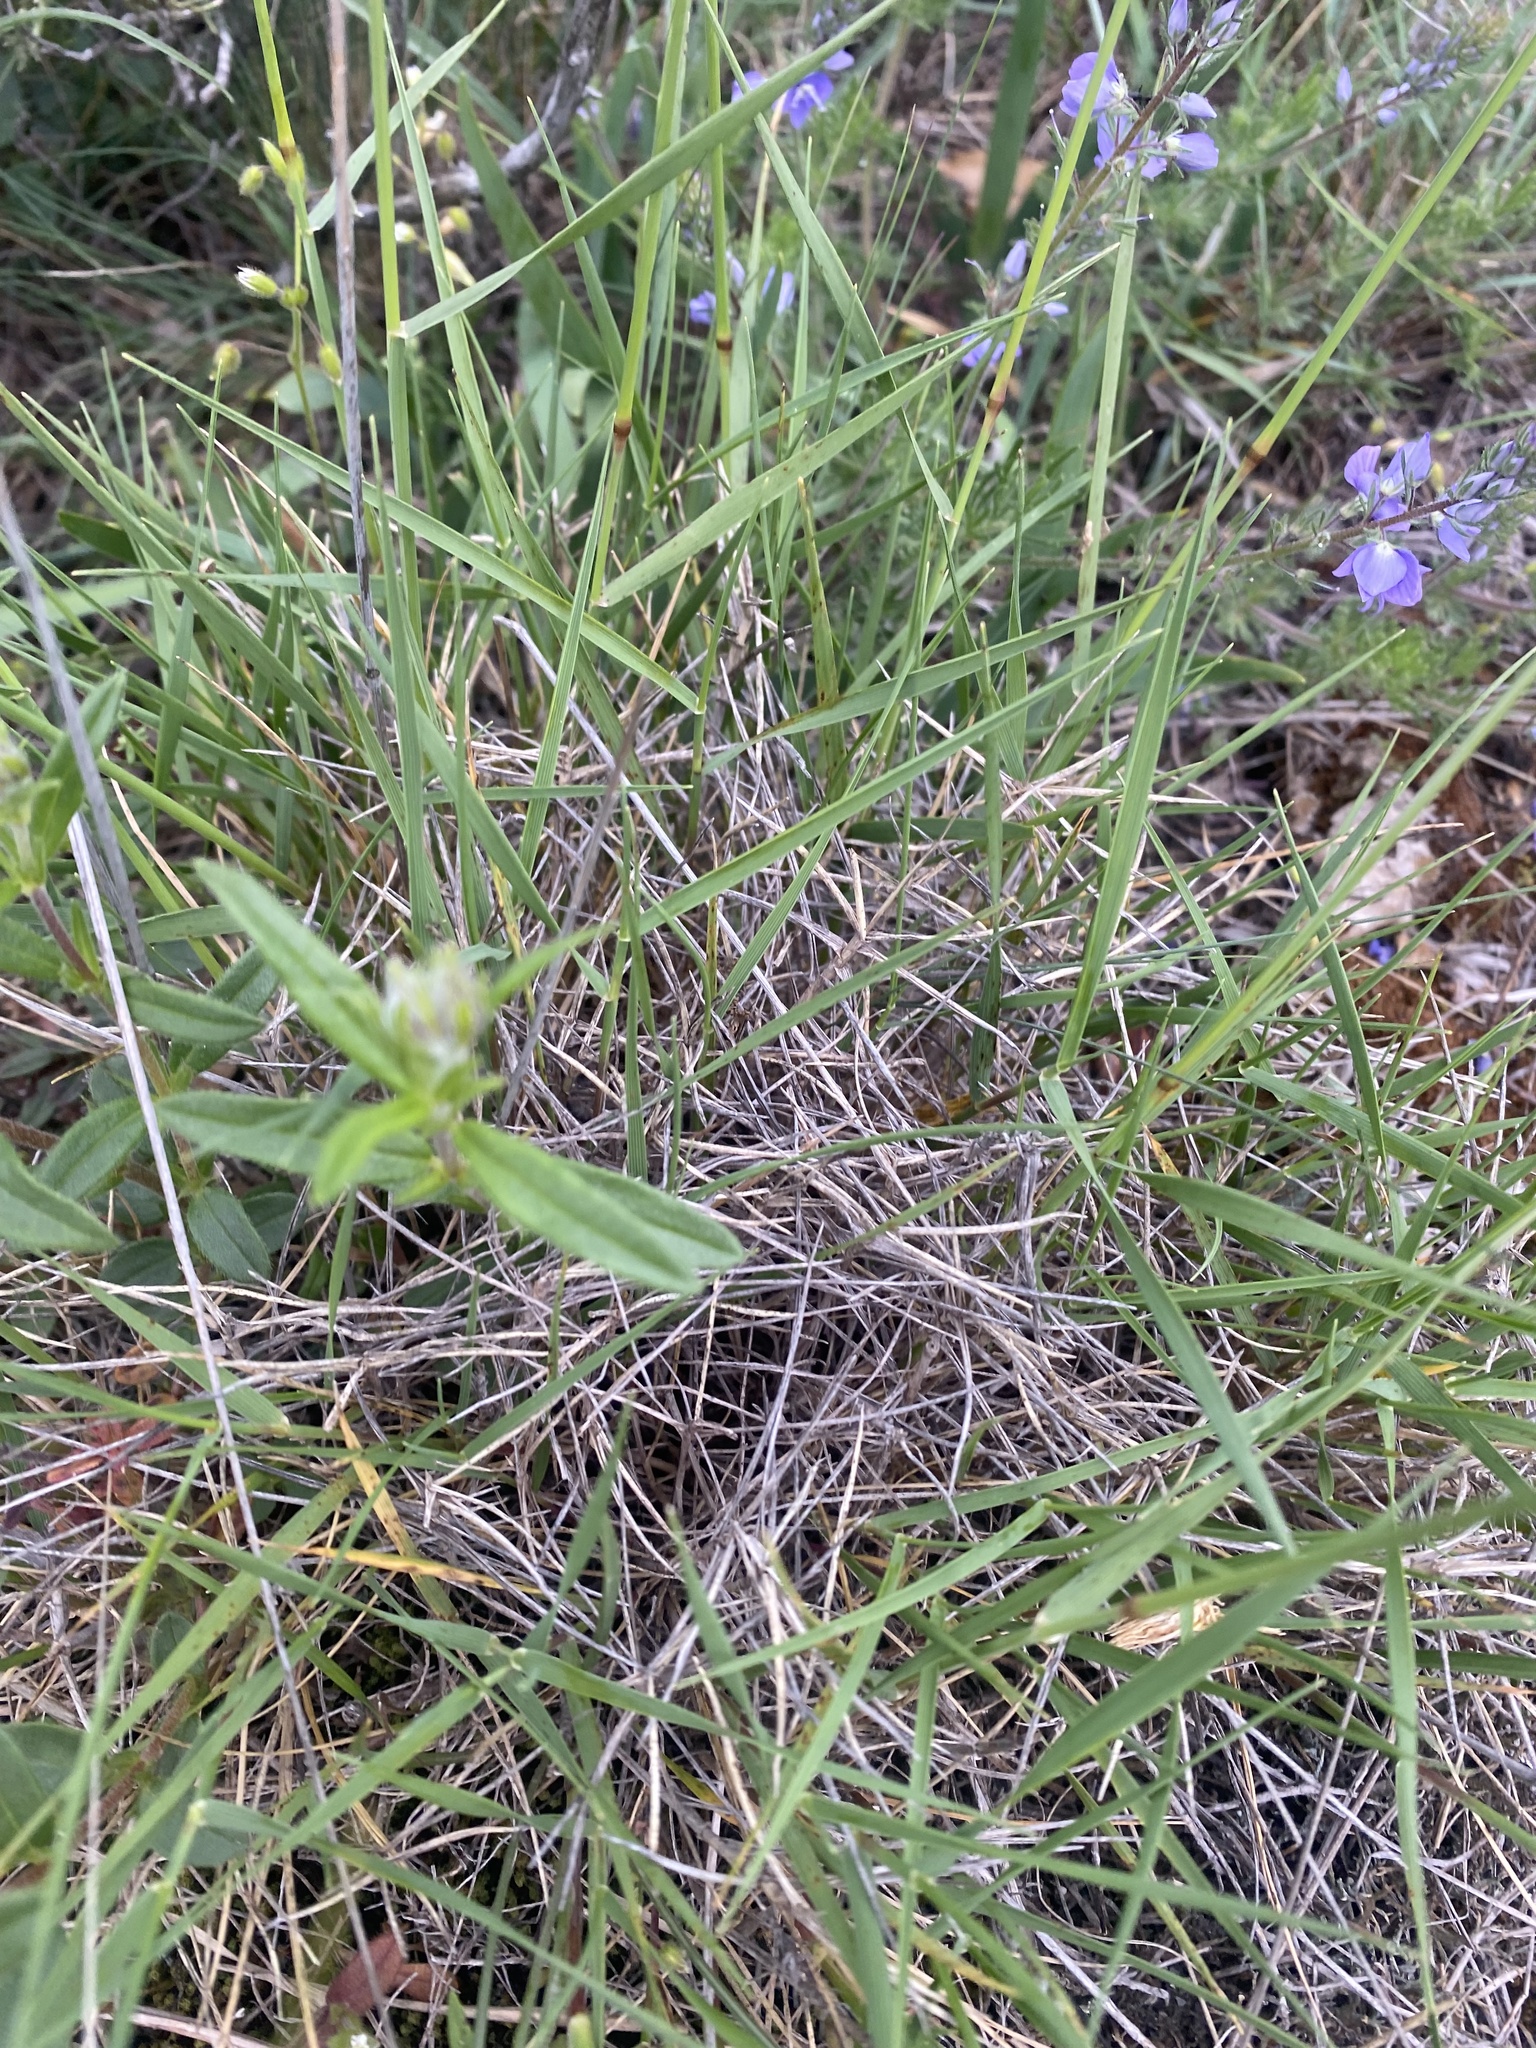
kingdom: Plantae
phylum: Tracheophyta
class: Liliopsida
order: Poales
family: Poaceae
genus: Agropyron
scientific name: Agropyron cristatum
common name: Crested wheatgrass
